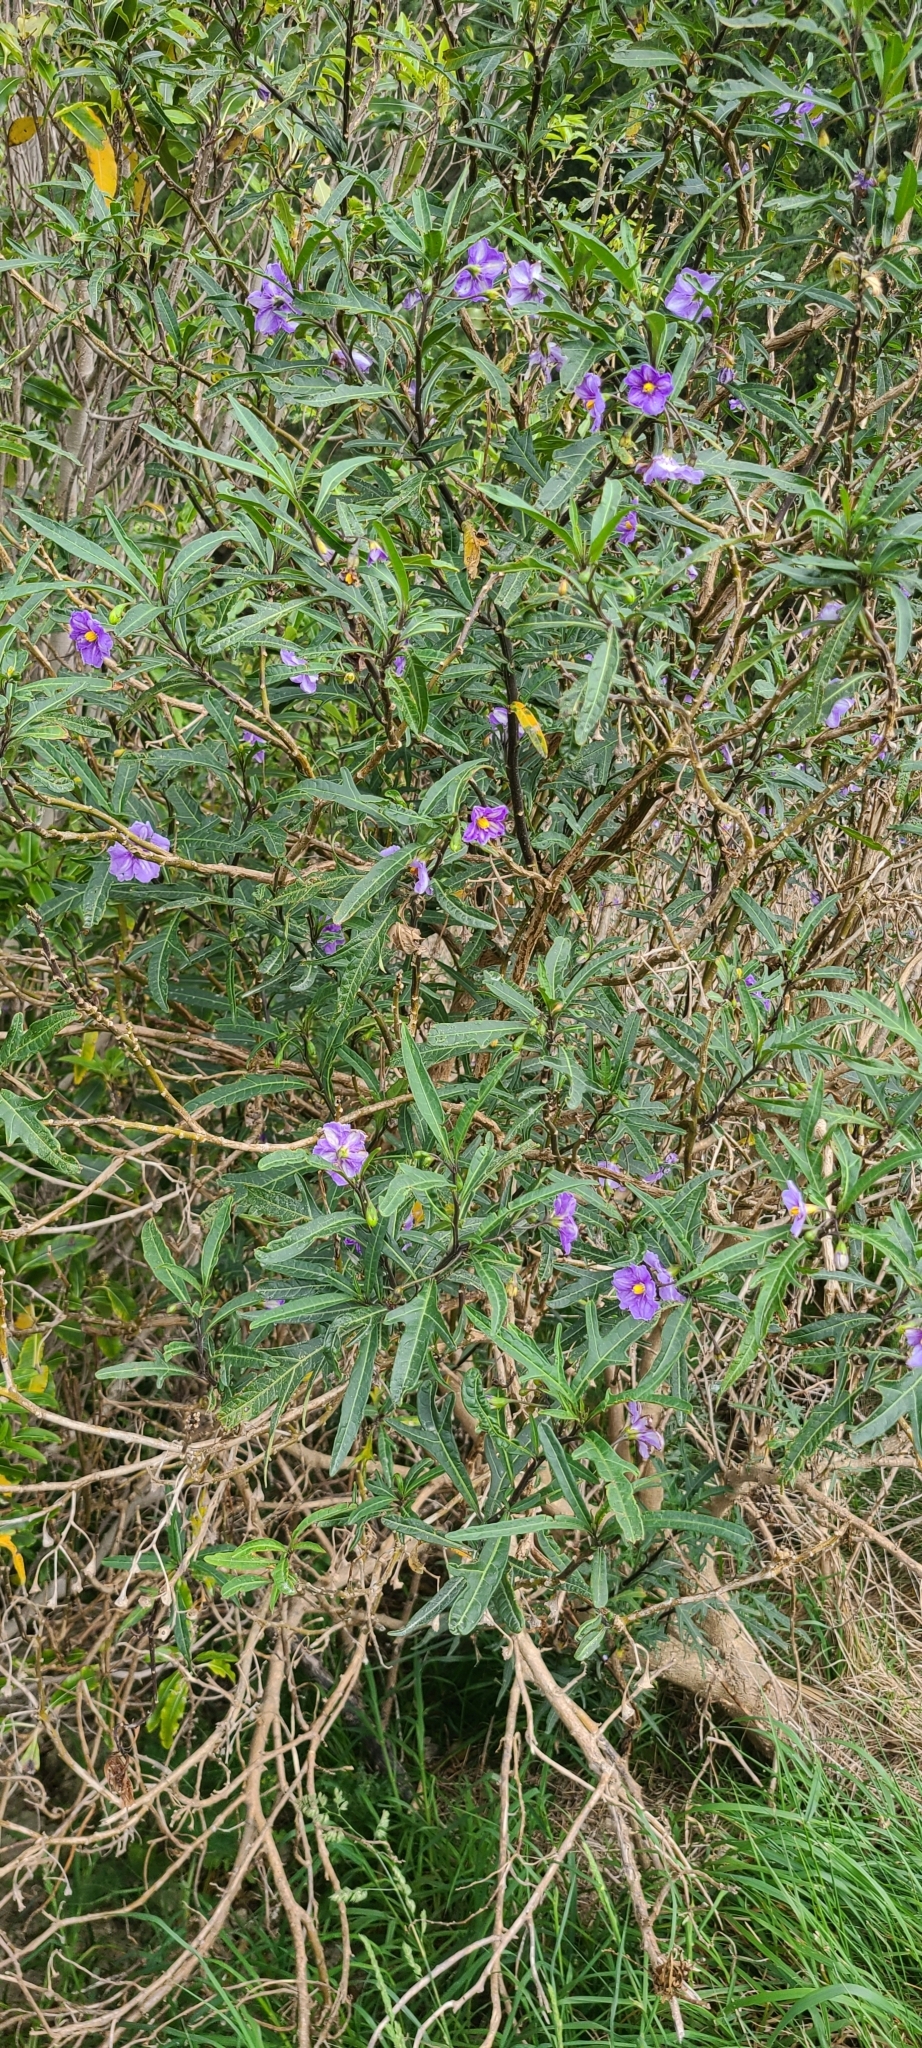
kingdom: Plantae
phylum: Tracheophyta
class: Magnoliopsida
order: Solanales
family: Solanaceae
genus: Solanum
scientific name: Solanum laciniatum
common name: Kangaroo-apple
